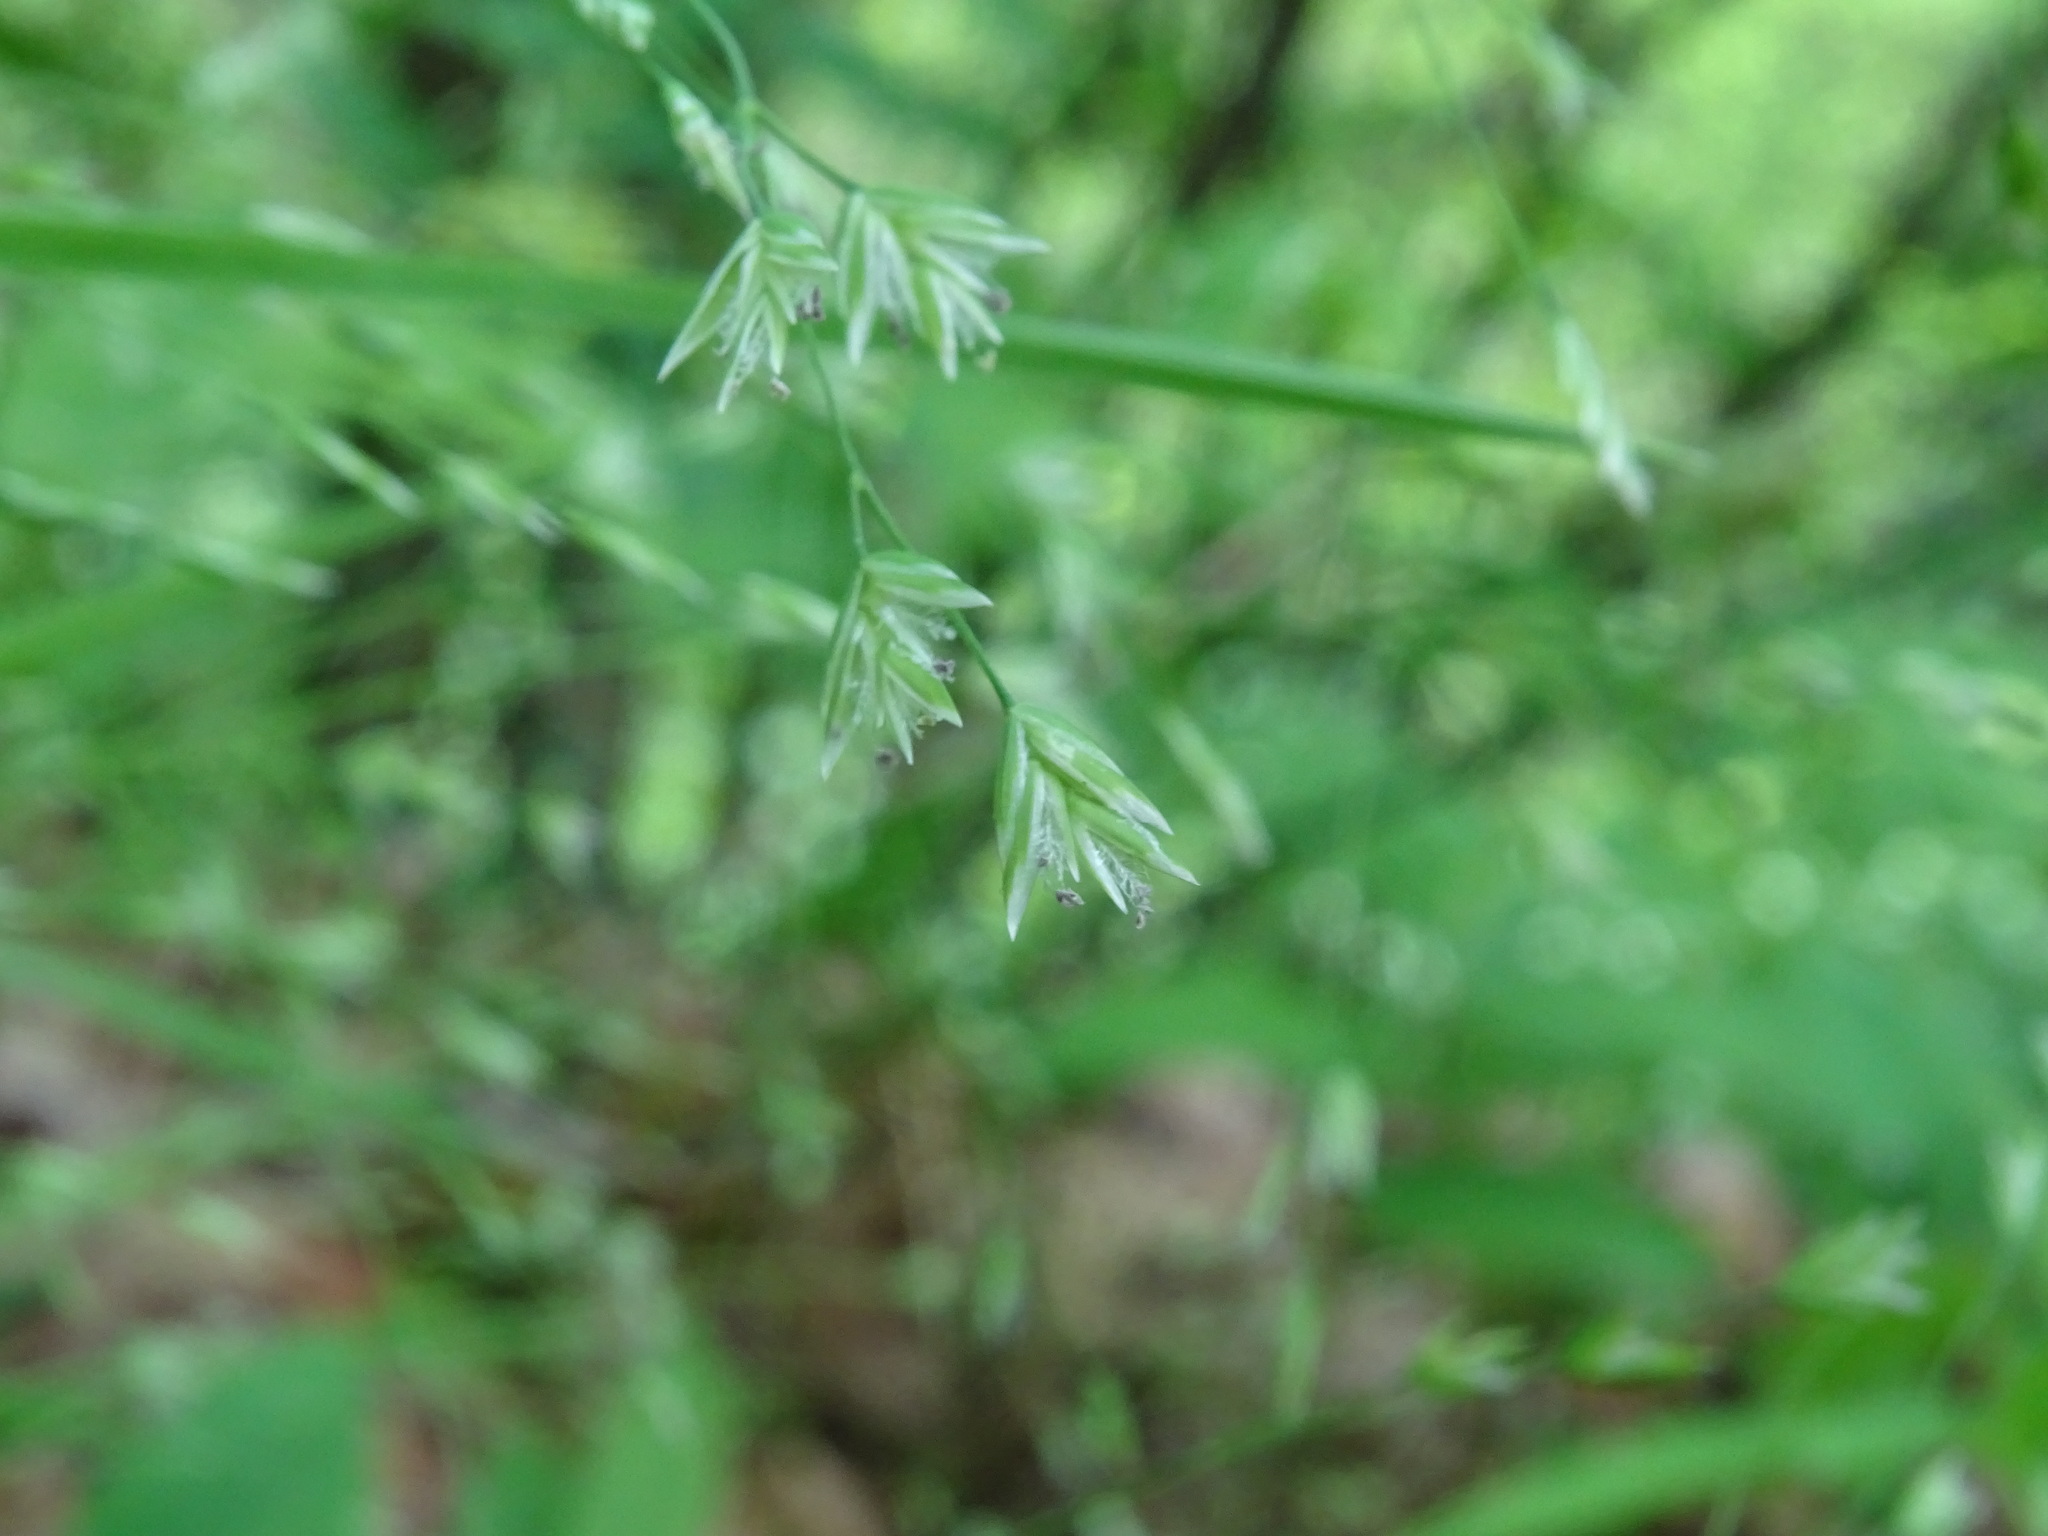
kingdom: Plantae
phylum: Tracheophyta
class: Liliopsida
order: Poales
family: Poaceae
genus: Poa
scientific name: Poa alsodes
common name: Grove bluegrass
